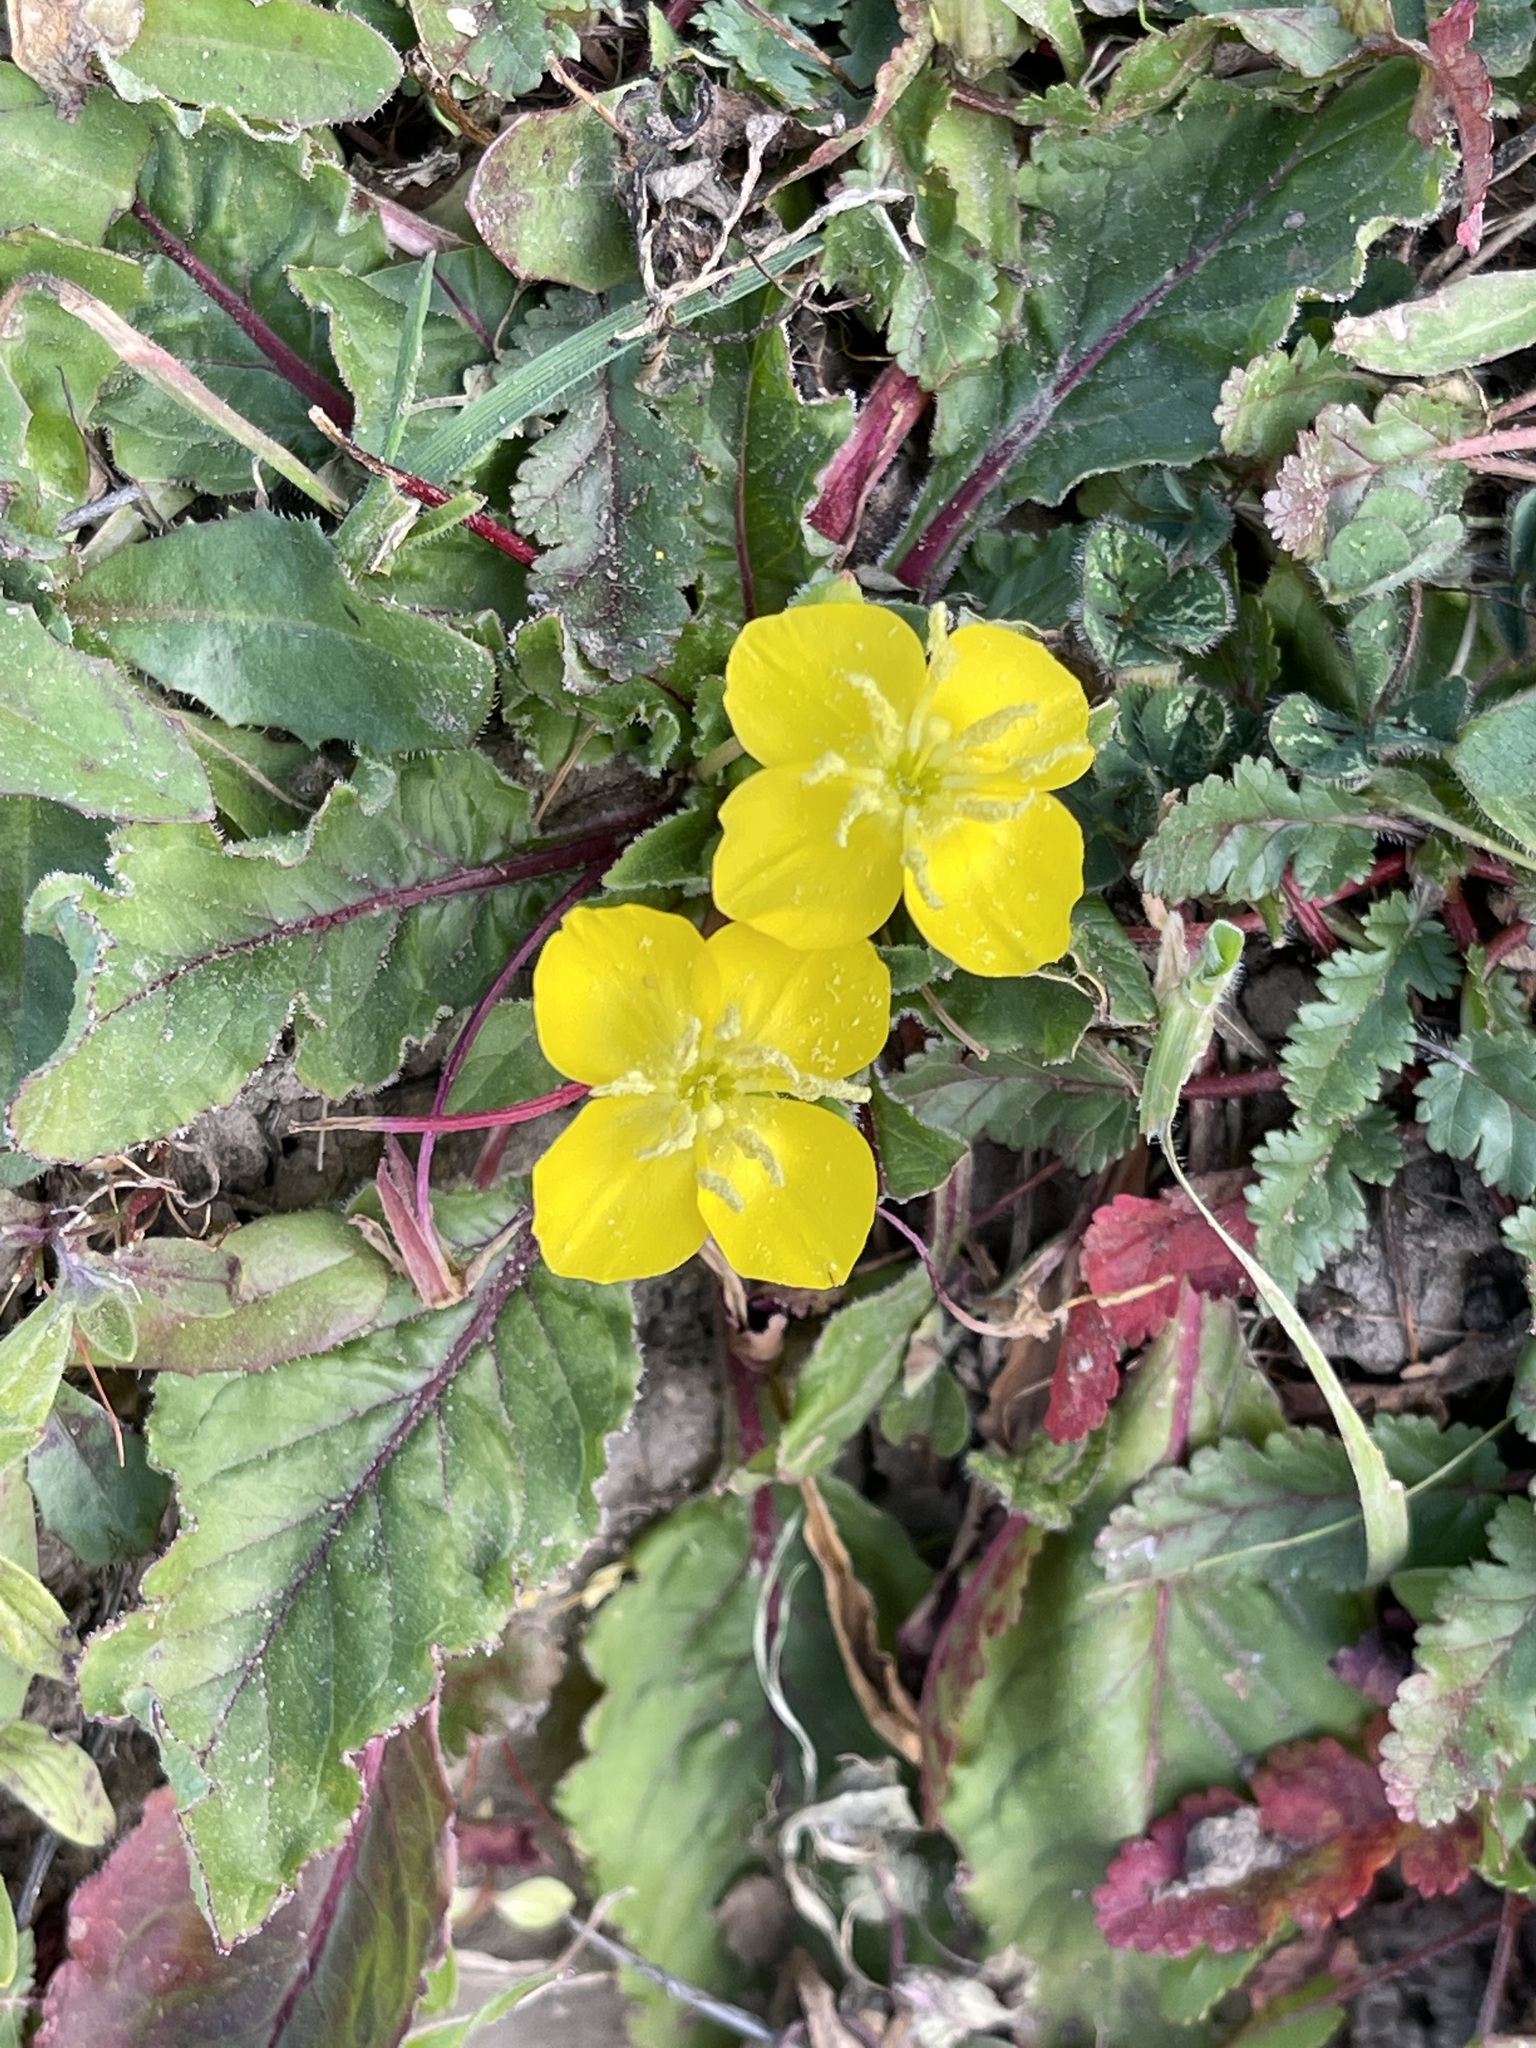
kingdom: Plantae
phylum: Tracheophyta
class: Magnoliopsida
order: Myrtales
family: Onagraceae
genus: Taraxia
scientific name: Taraxia ovata
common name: Goldeneggs
